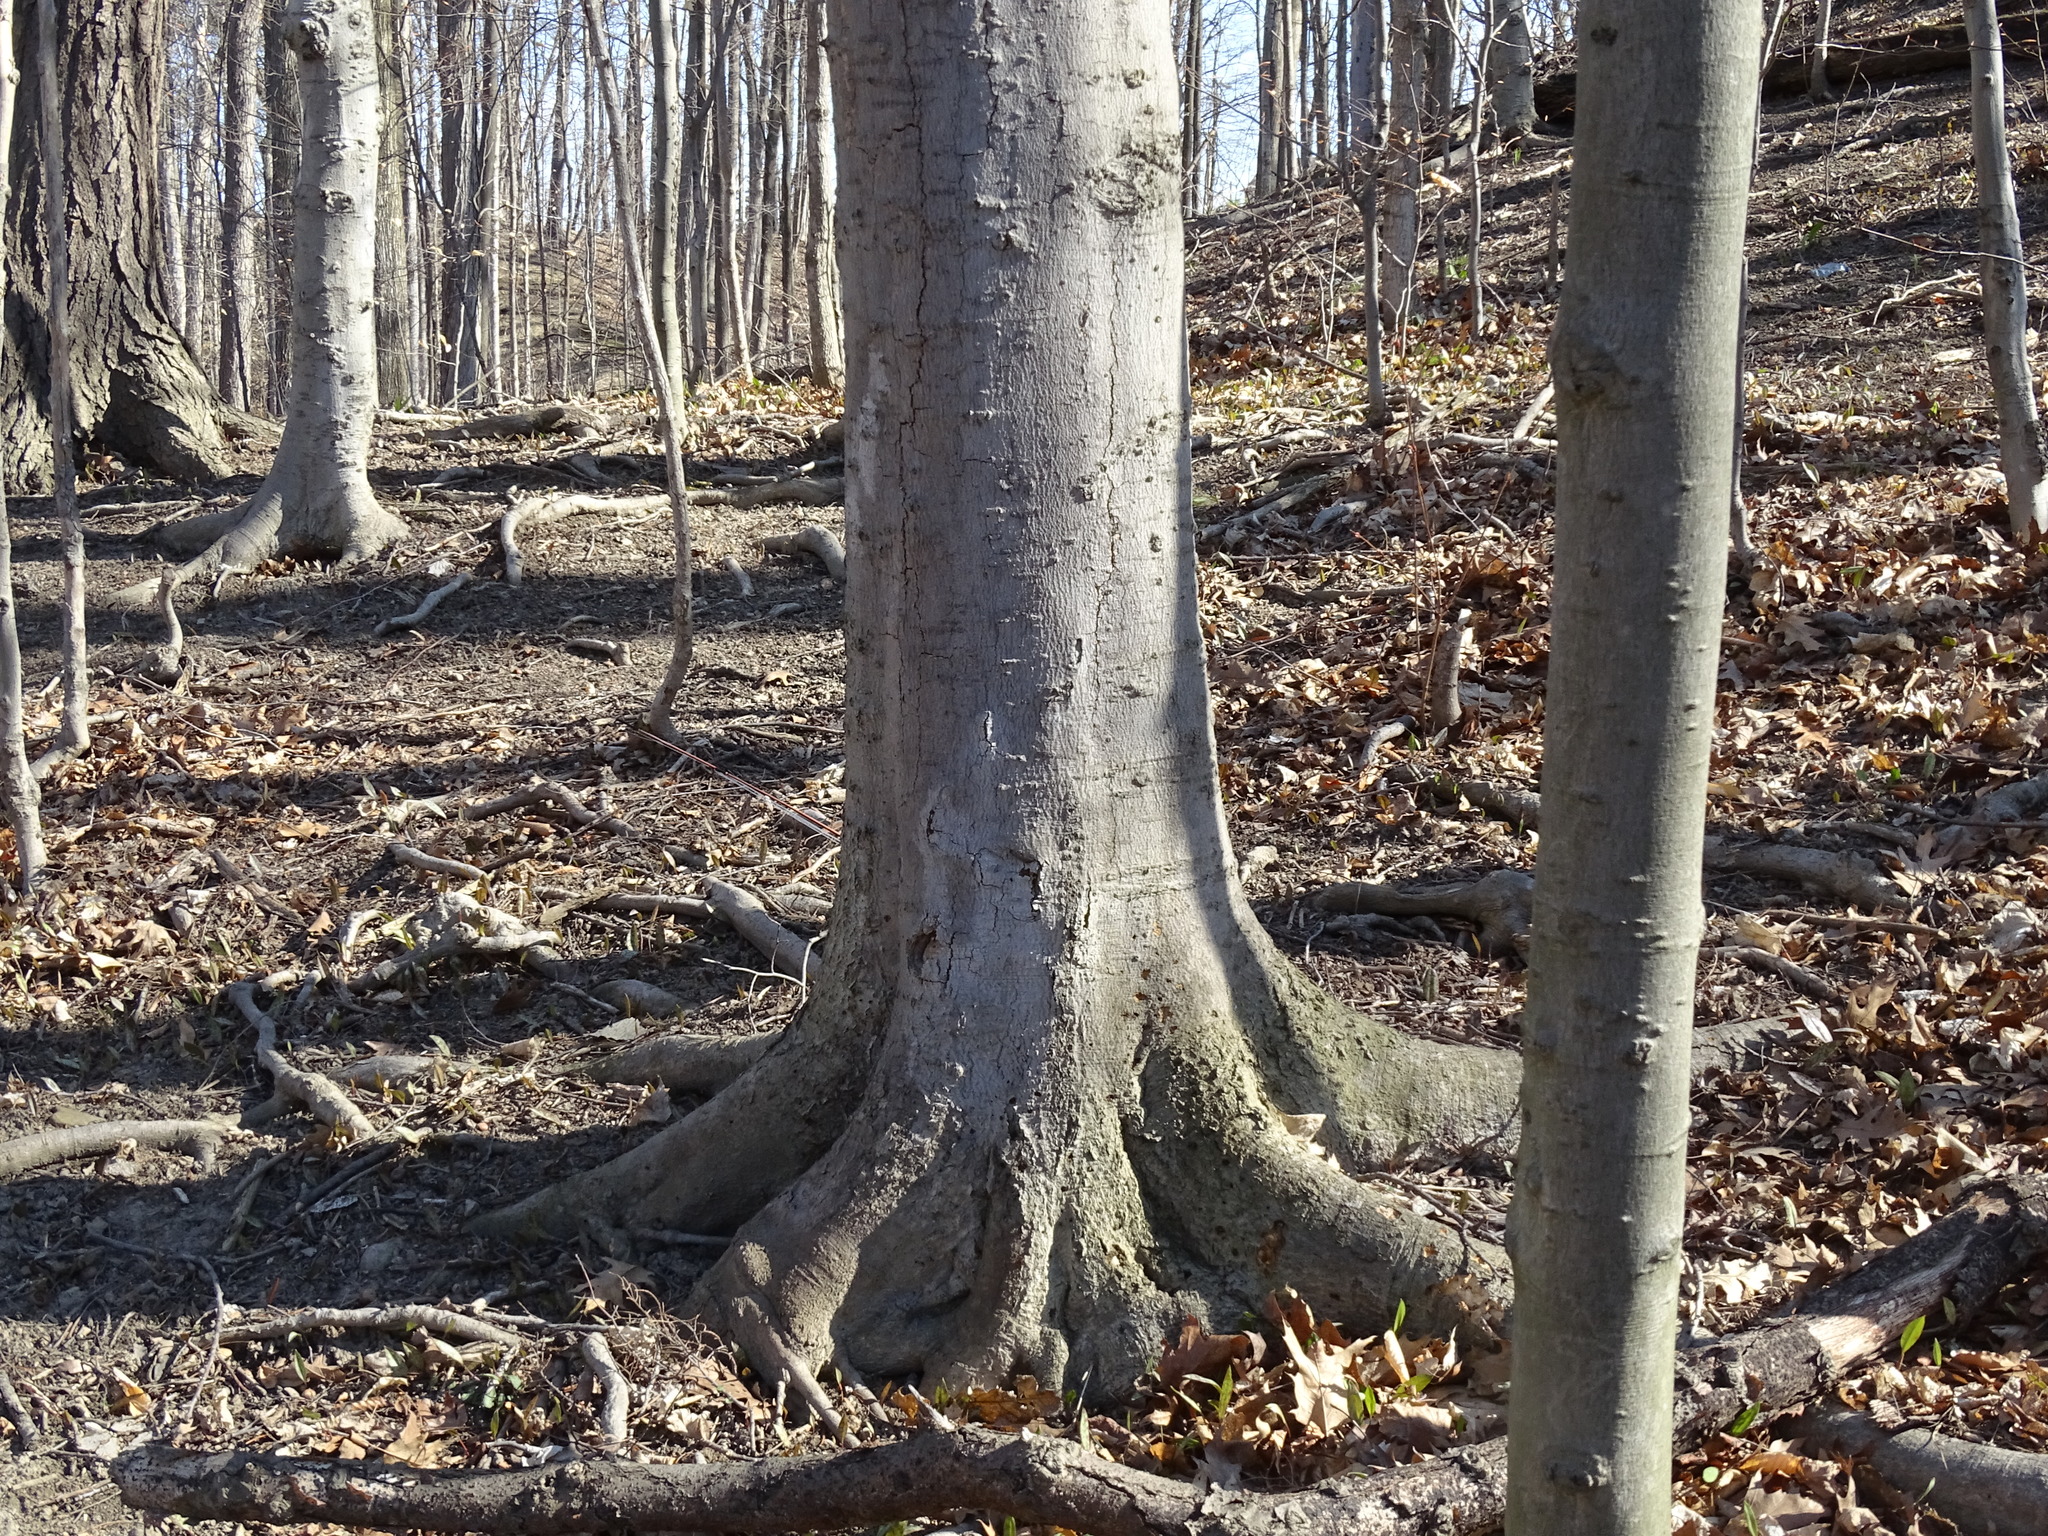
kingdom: Plantae
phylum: Tracheophyta
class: Magnoliopsida
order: Fagales
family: Fagaceae
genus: Fagus
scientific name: Fagus grandifolia
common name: American beech
